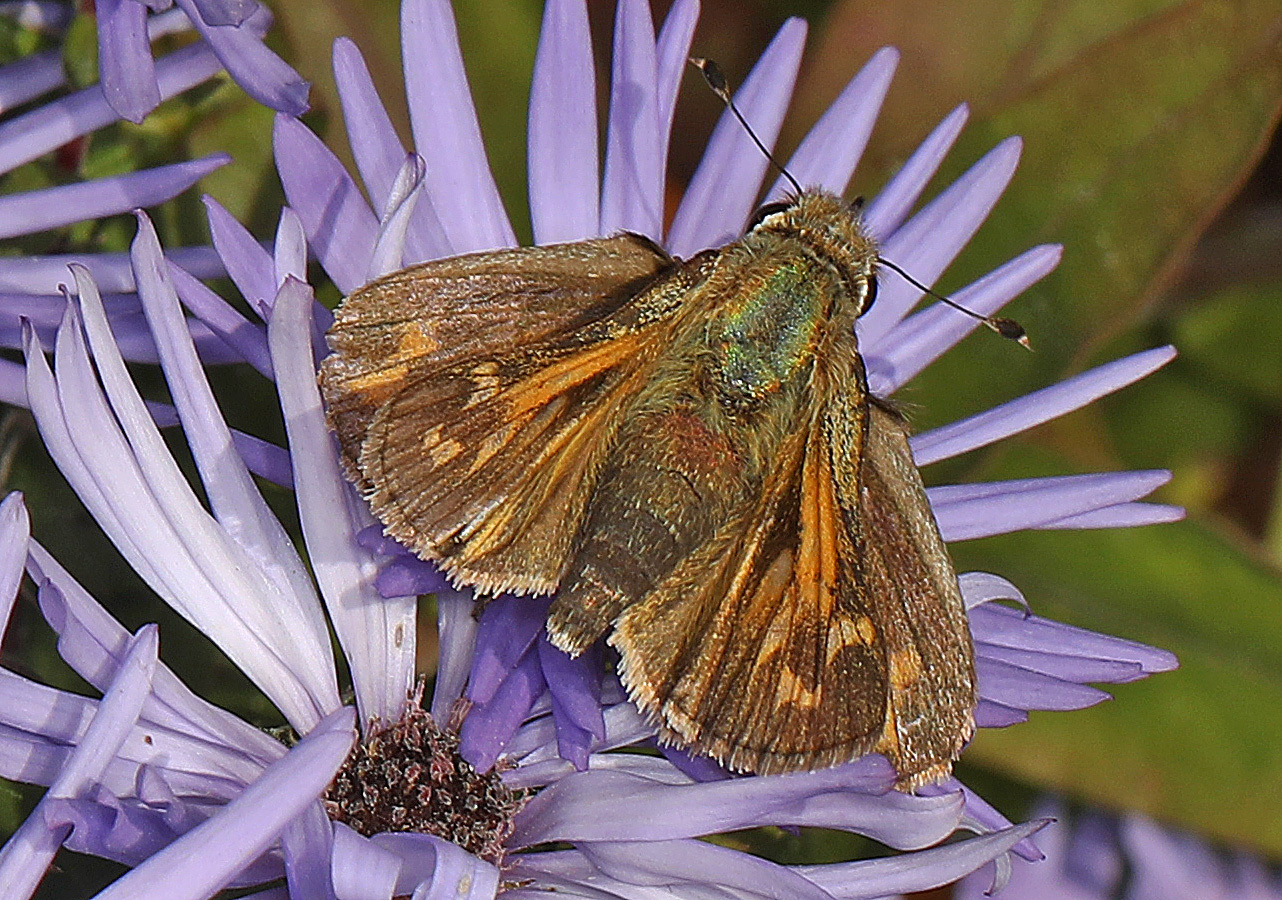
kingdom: Animalia
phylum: Arthropoda
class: Insecta
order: Lepidoptera
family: Hesperiidae
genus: Atalopedes
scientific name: Atalopedes
